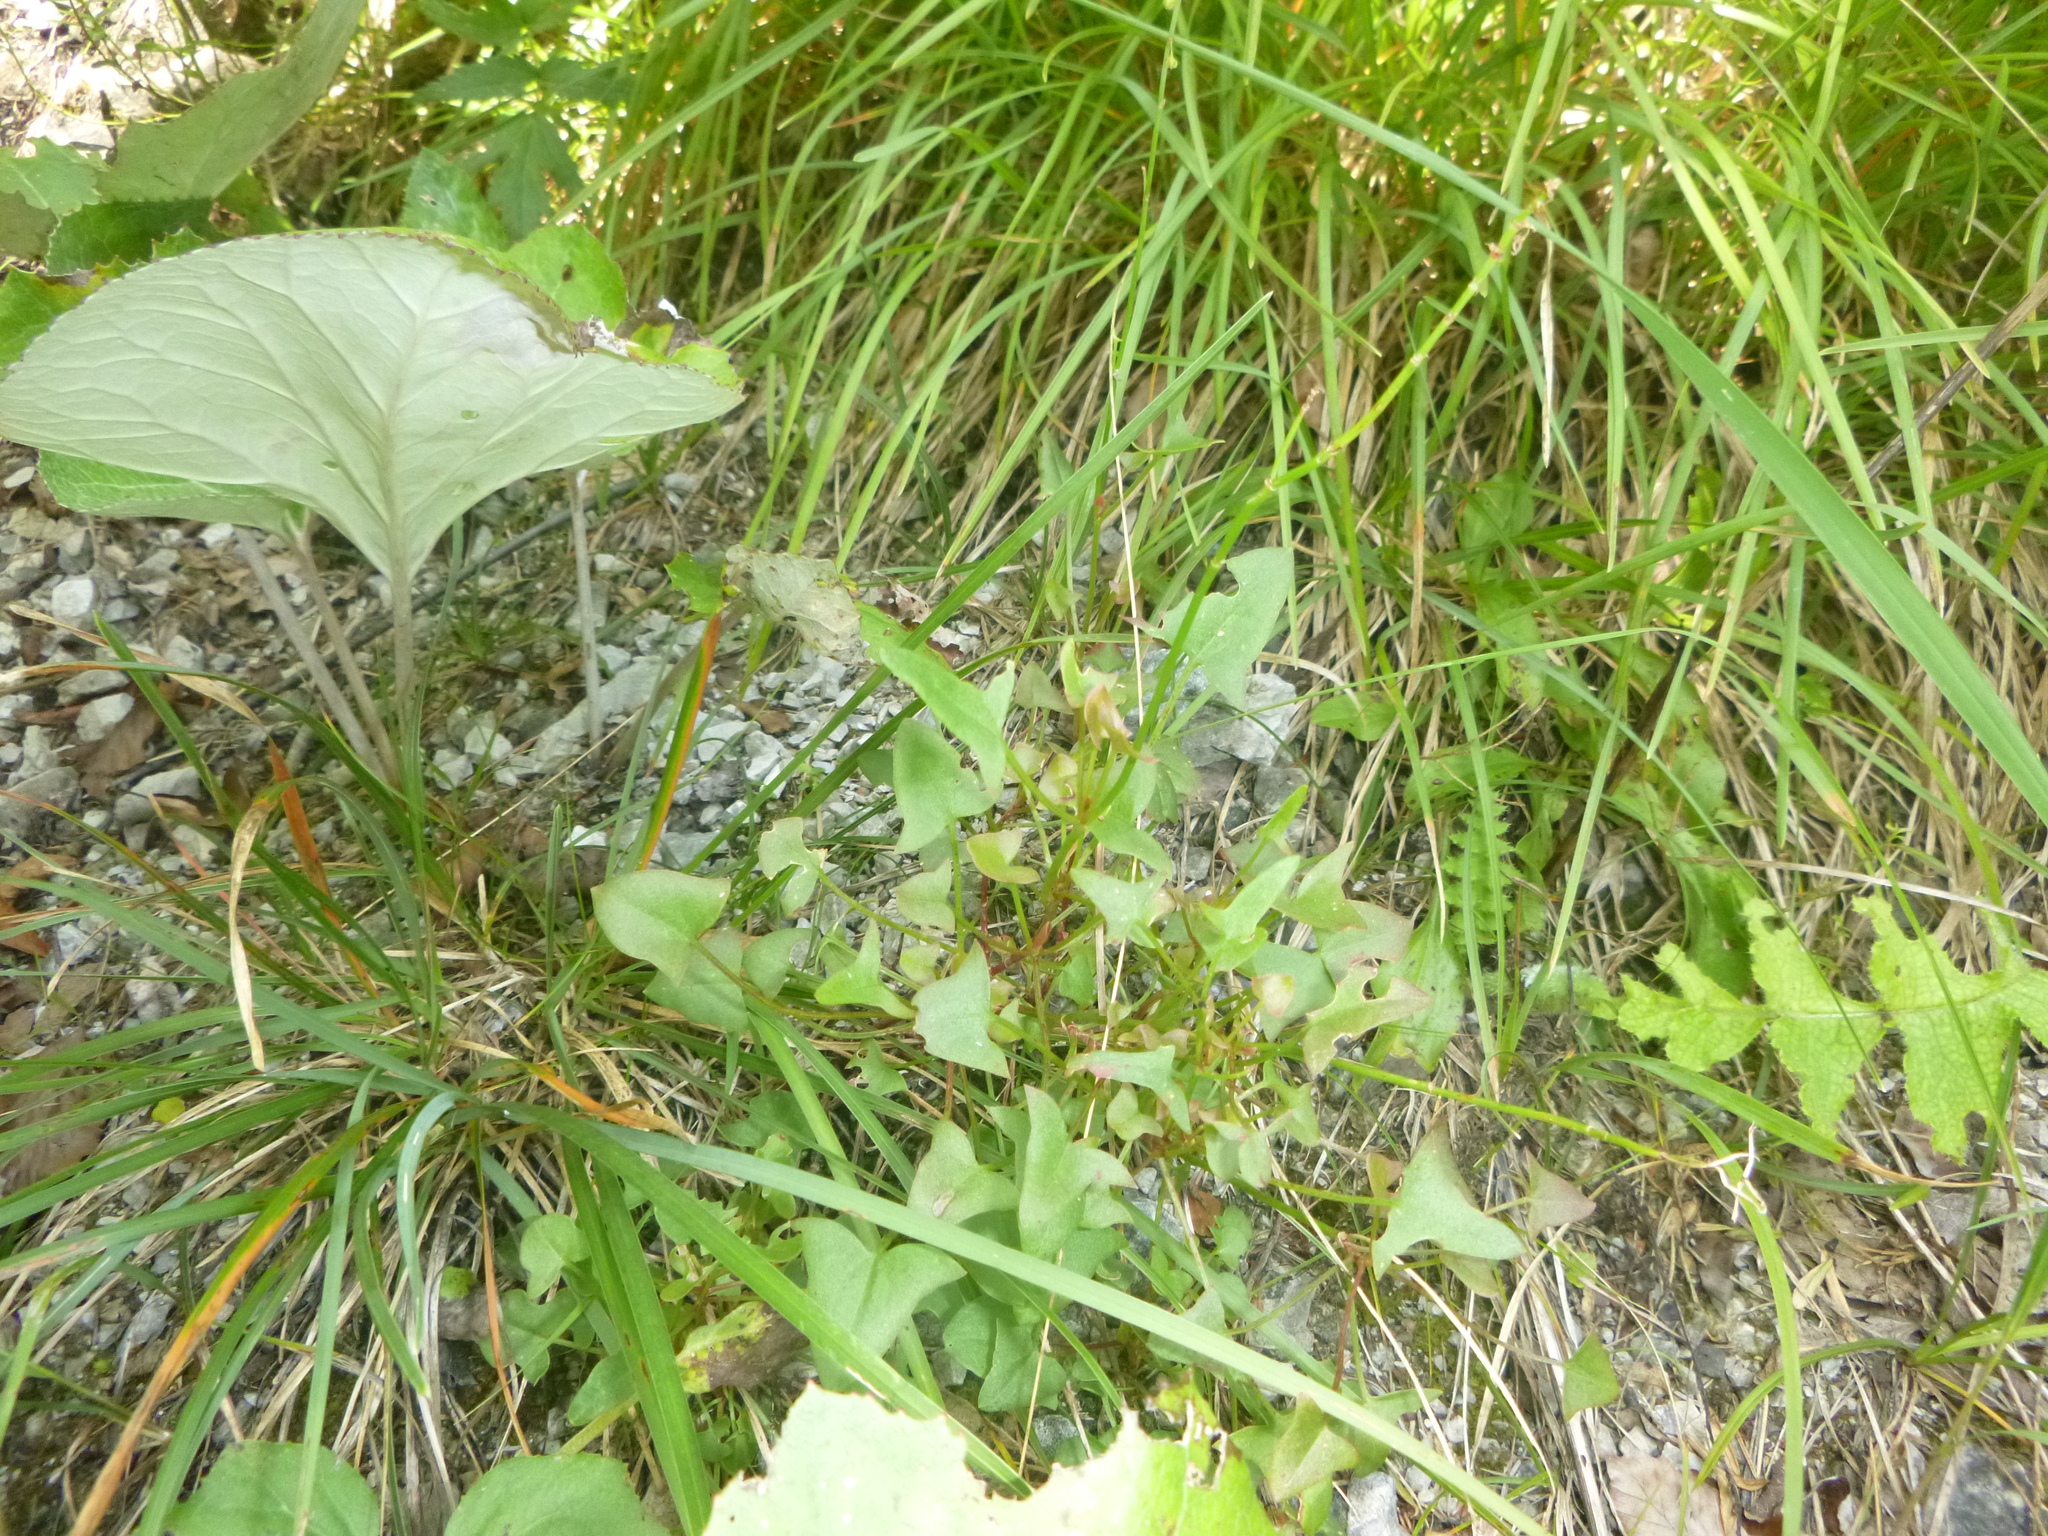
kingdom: Plantae
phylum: Tracheophyta
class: Magnoliopsida
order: Caryophyllales
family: Polygonaceae
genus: Rumex
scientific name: Rumex scutatus
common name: French sorrel
